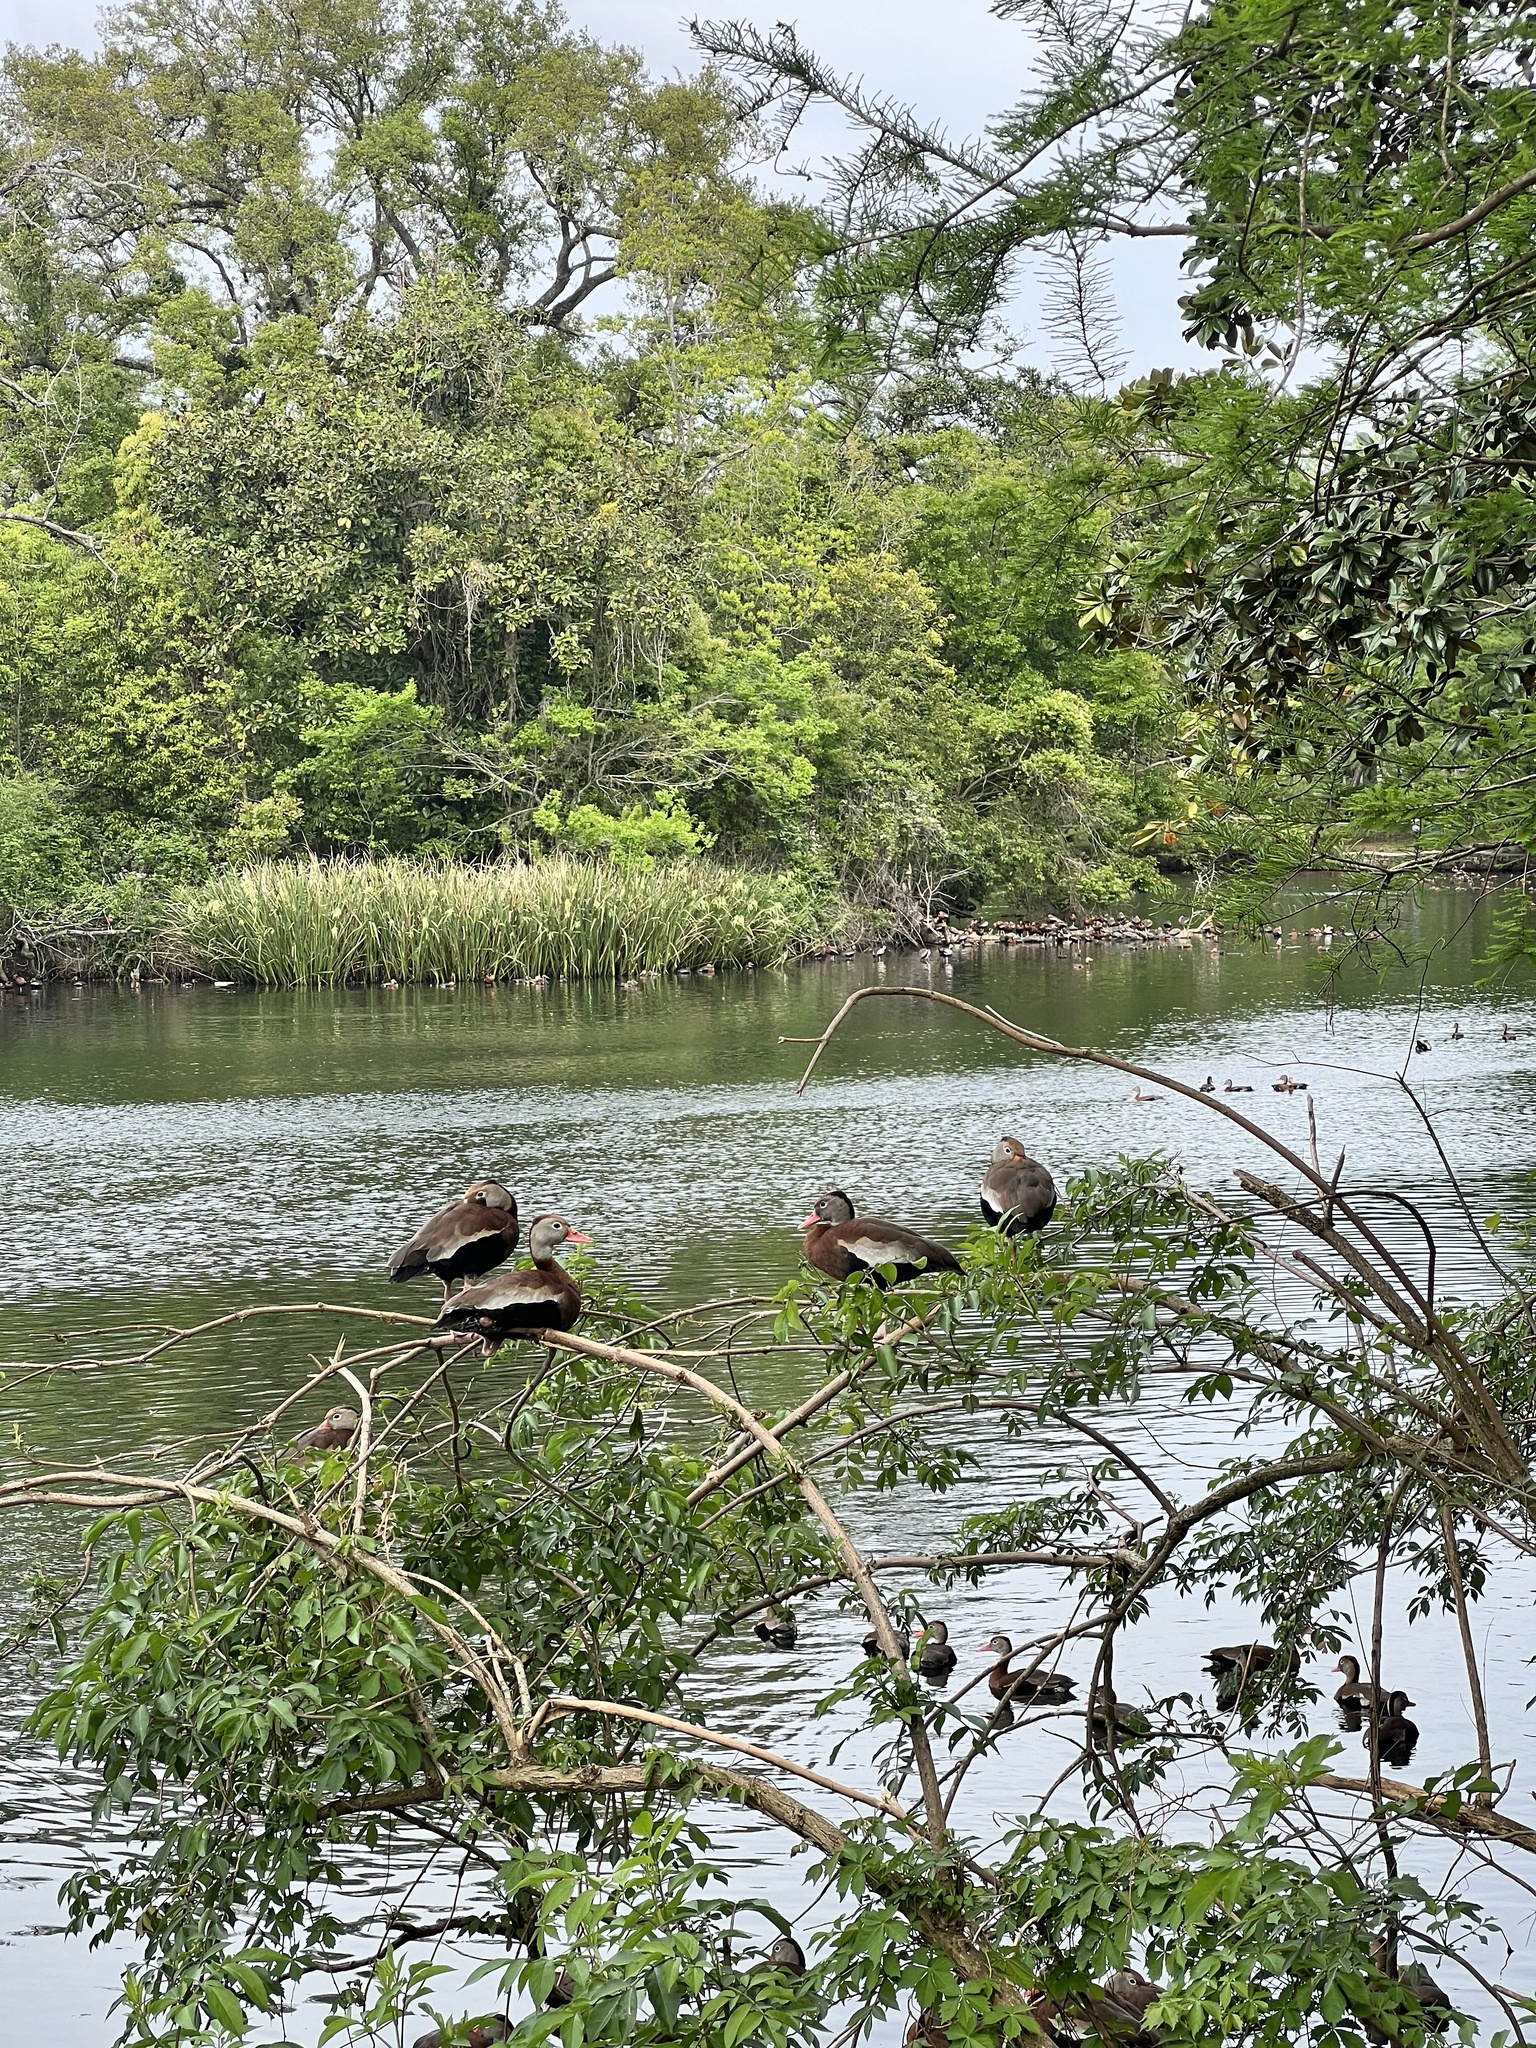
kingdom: Animalia
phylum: Chordata
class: Aves
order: Anseriformes
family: Anatidae
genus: Dendrocygna
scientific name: Dendrocygna autumnalis
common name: Black-bellied whistling duck
